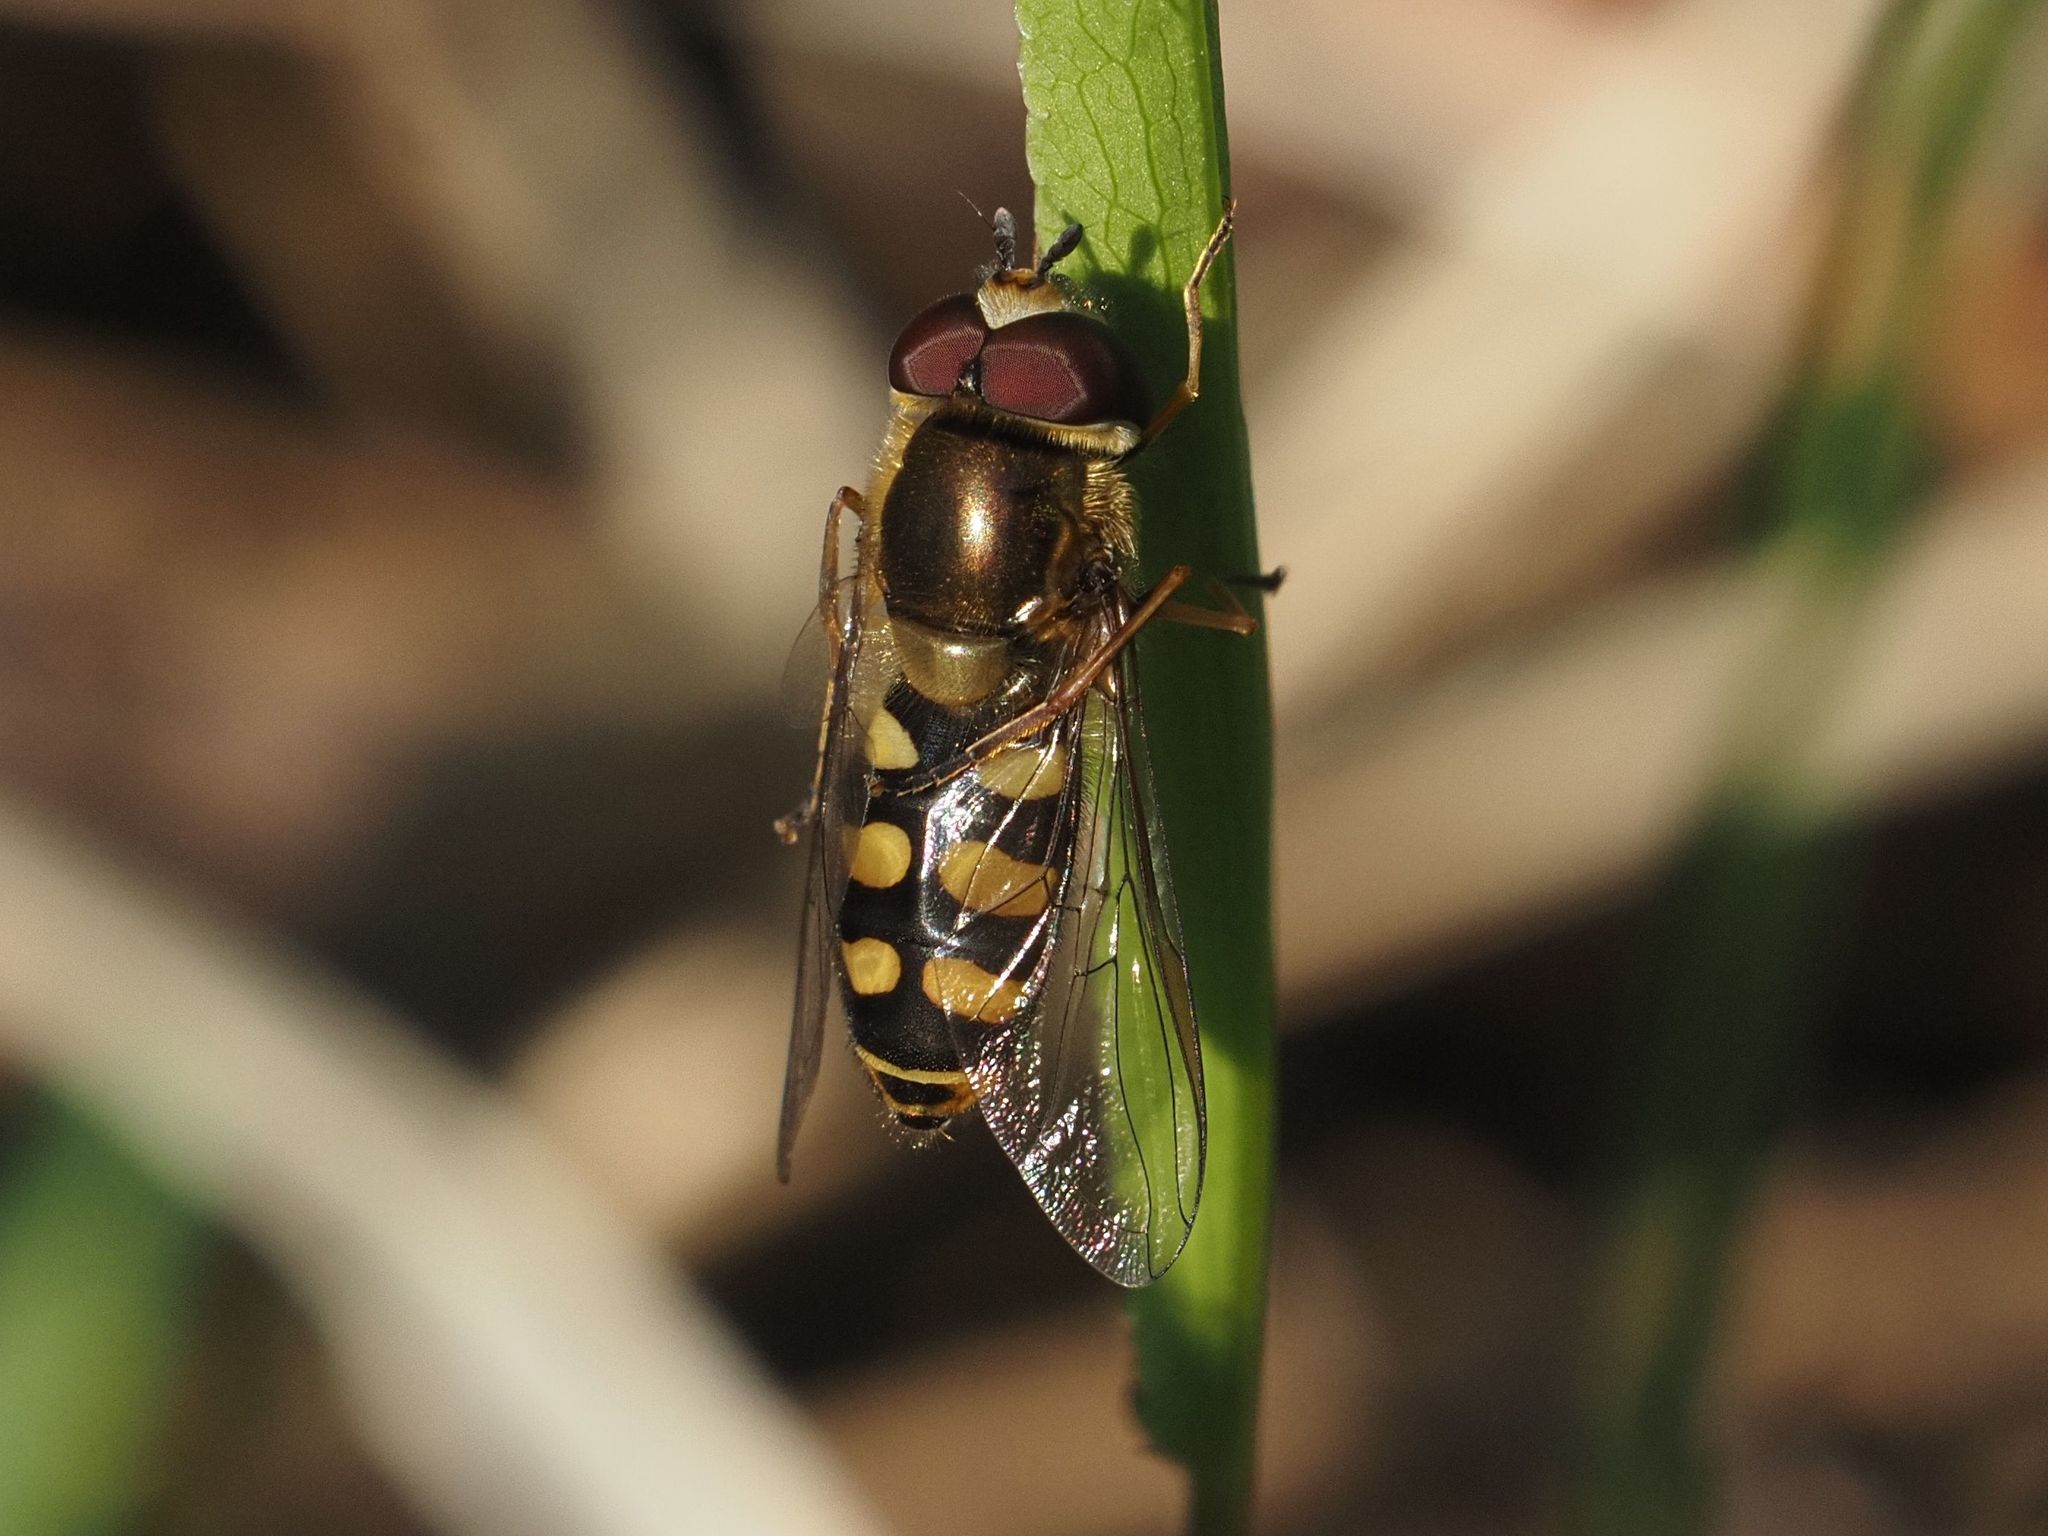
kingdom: Animalia
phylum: Arthropoda
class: Insecta
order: Diptera
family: Syrphidae
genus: Eupeodes
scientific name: Eupeodes luniger
